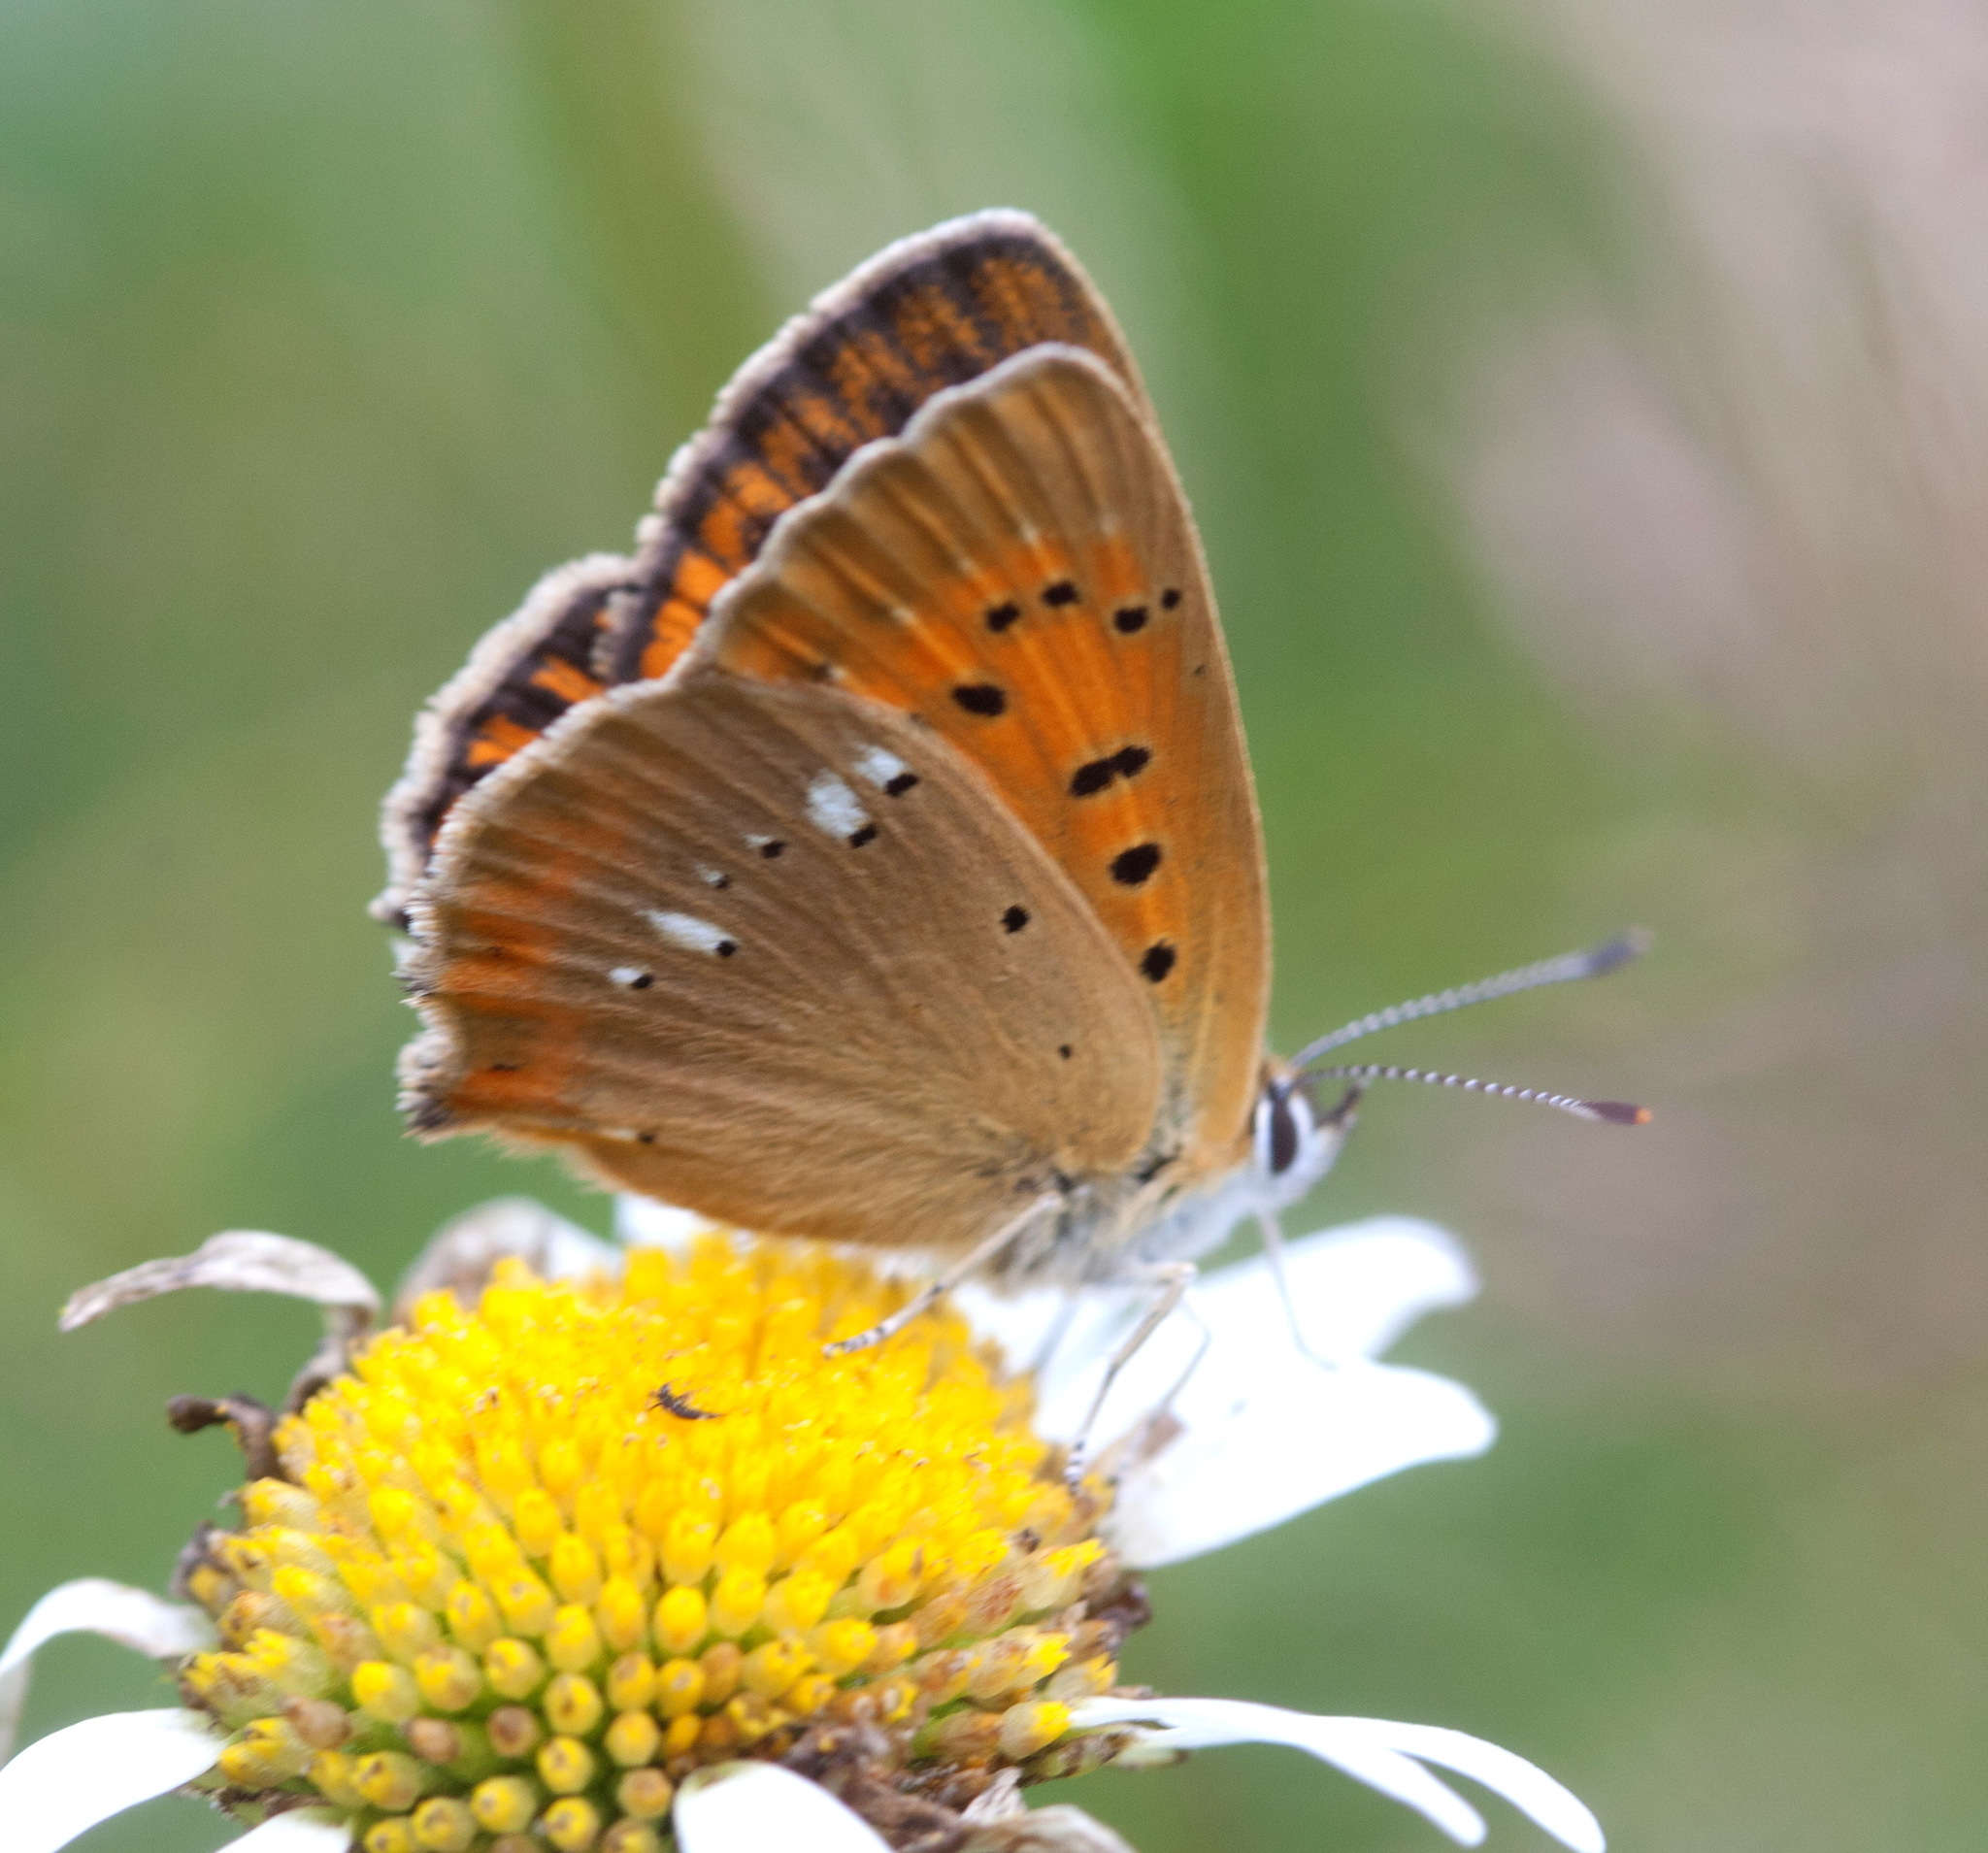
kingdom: Animalia
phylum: Arthropoda
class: Insecta
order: Lepidoptera
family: Lycaenidae
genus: Lycaena
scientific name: Lycaena virgaureae
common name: Scarce copper
